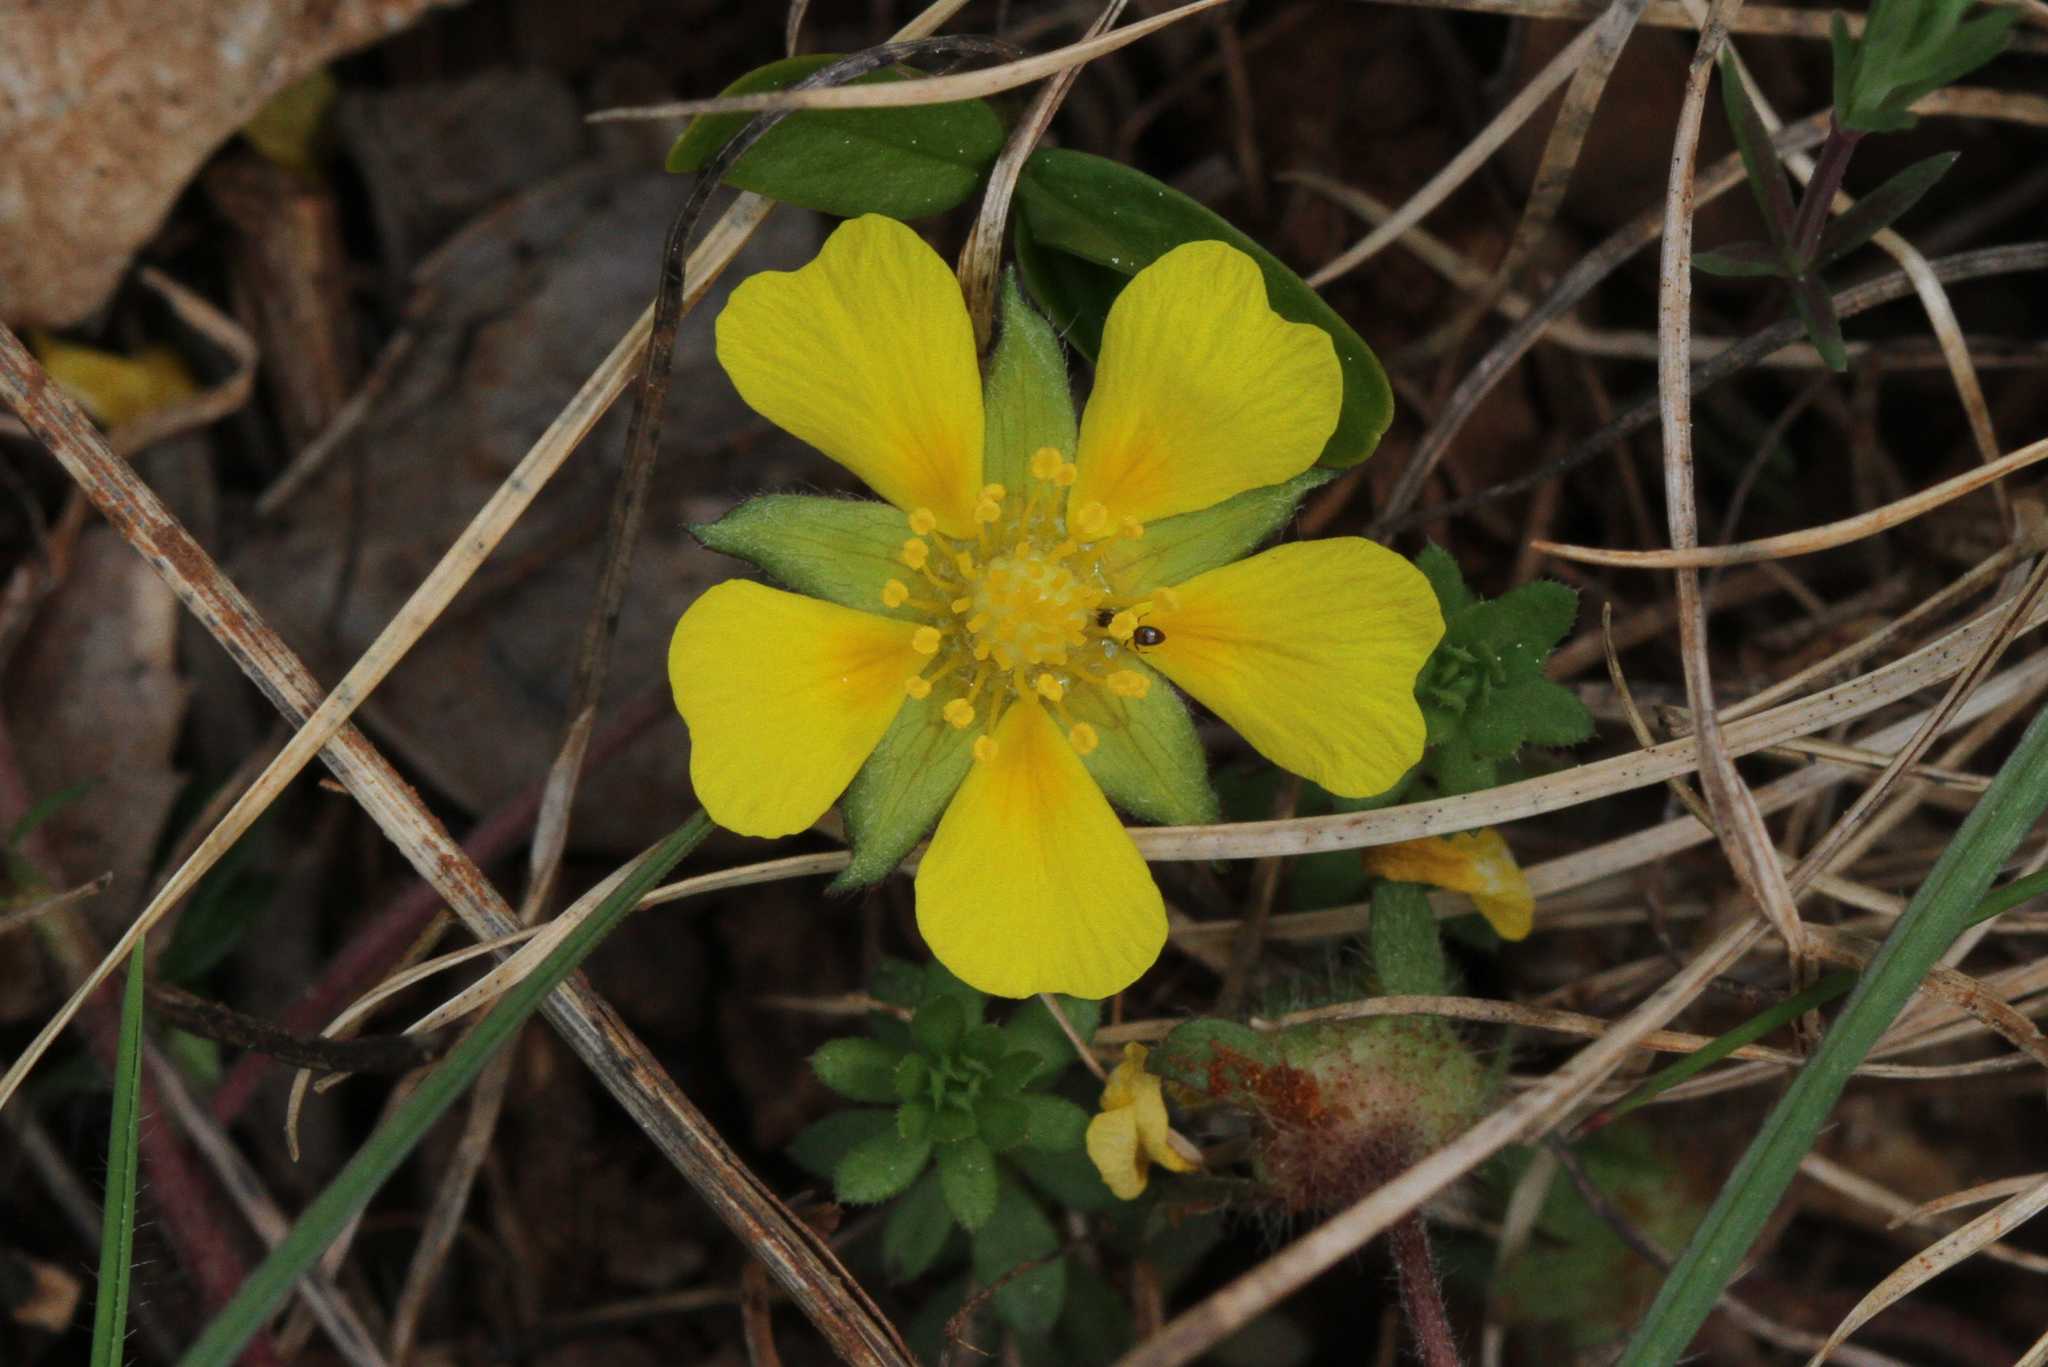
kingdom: Plantae
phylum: Tracheophyta
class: Magnoliopsida
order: Rosales
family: Rosaceae
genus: Potentilla
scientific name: Potentilla reptans
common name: Creeping cinquefoil
